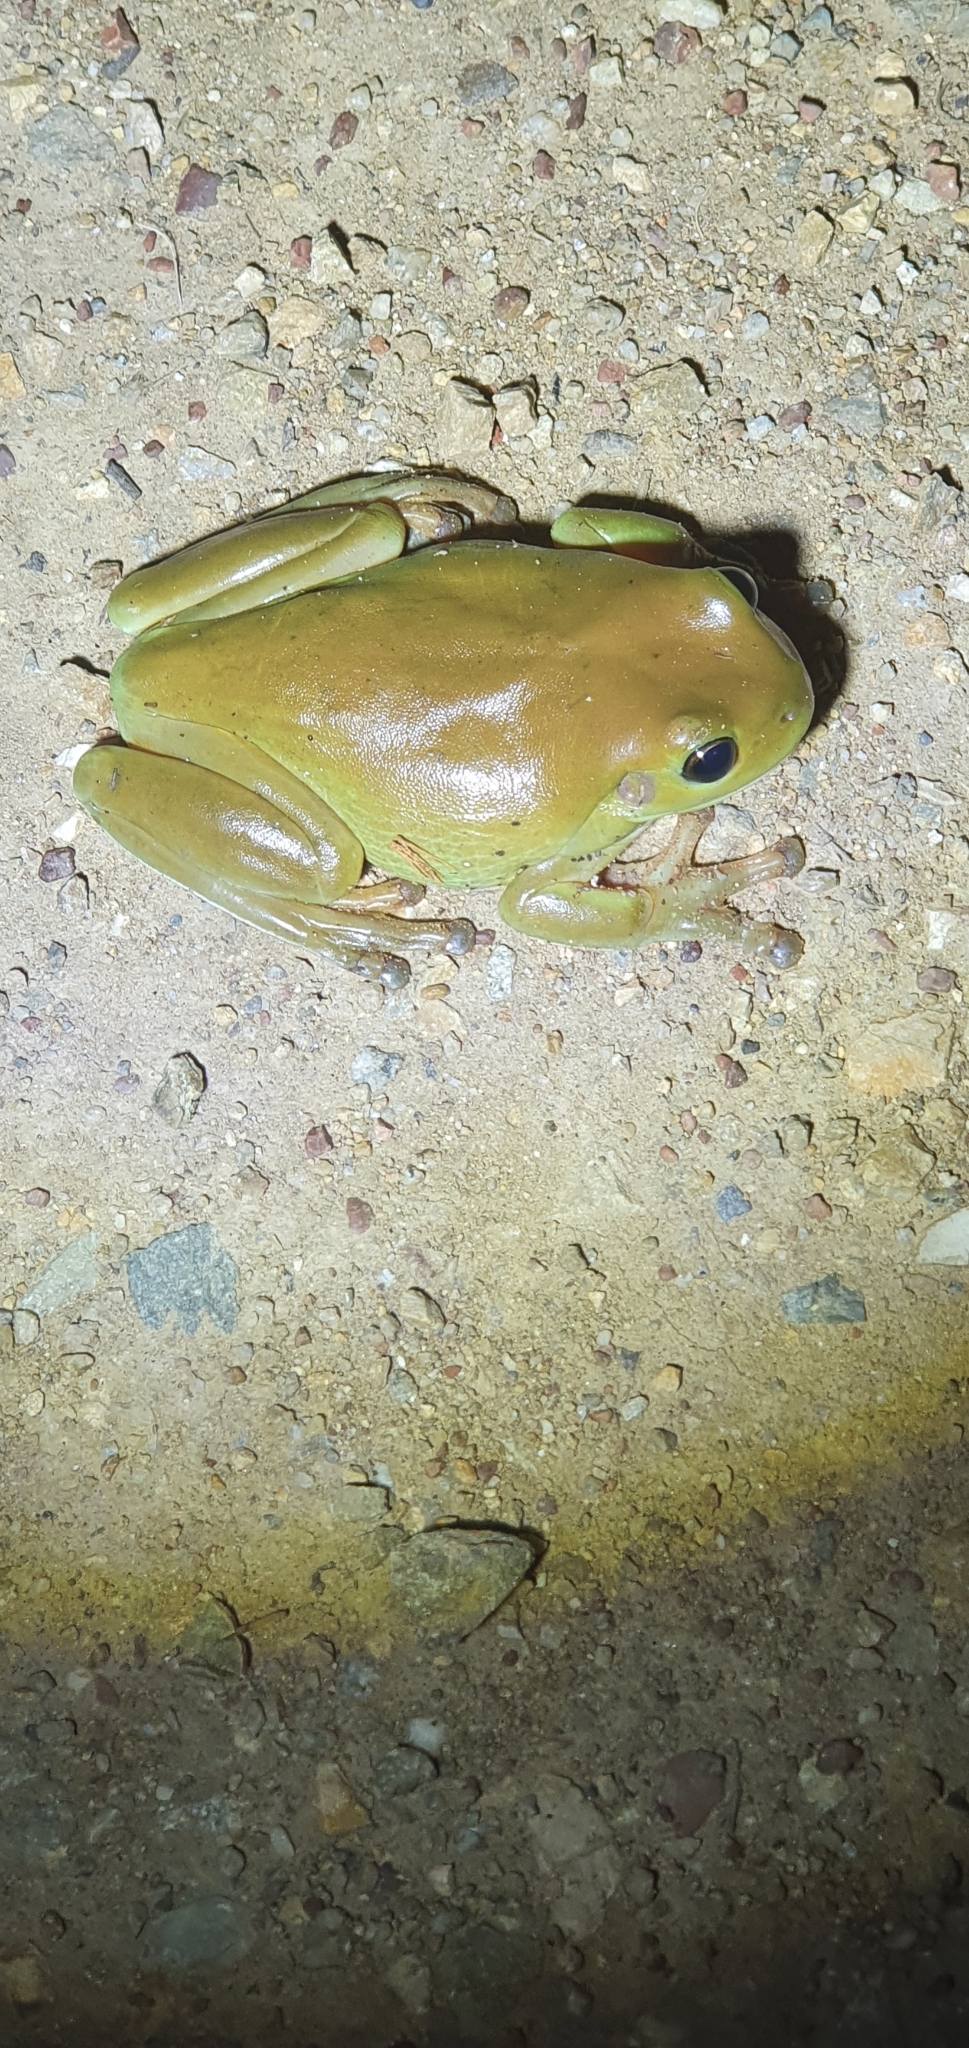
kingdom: Animalia
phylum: Chordata
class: Amphibia
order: Anura
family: Pelodryadidae
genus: Ranoidea
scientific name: Ranoidea caerulea
